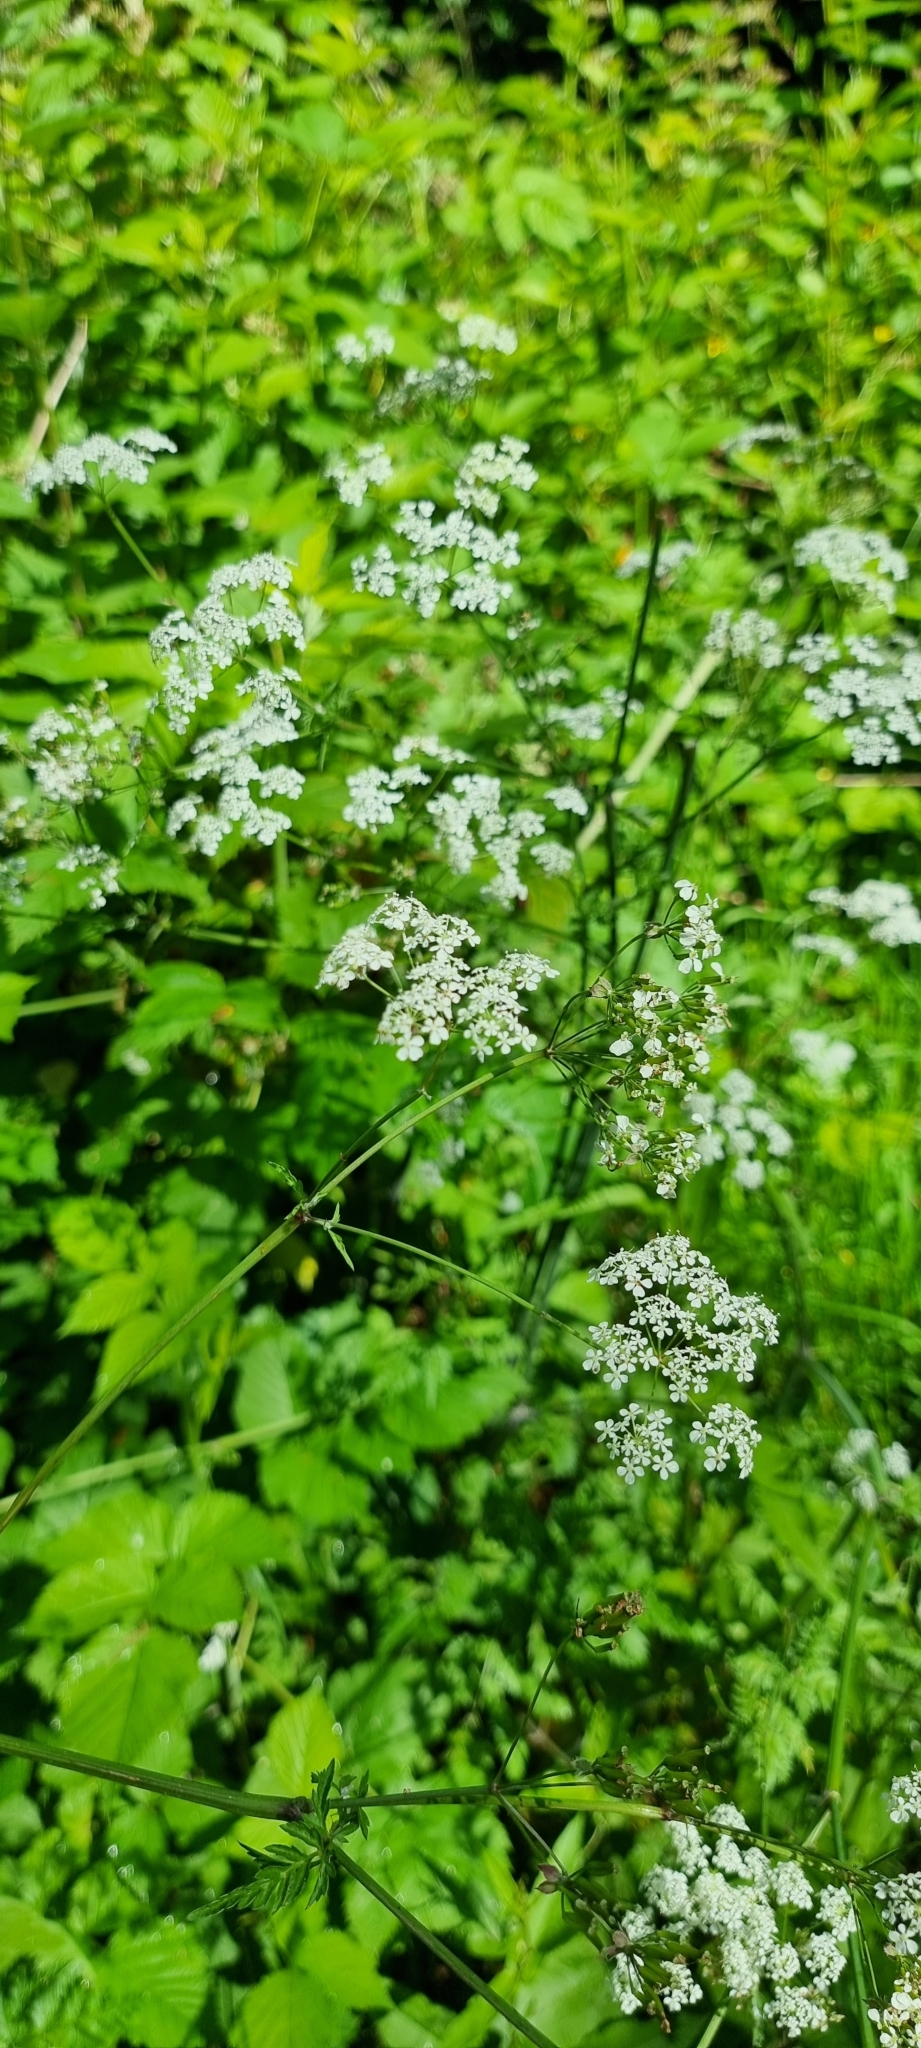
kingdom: Plantae
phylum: Tracheophyta
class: Magnoliopsida
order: Apiales
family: Apiaceae
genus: Anthriscus
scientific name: Anthriscus sylvestris
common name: Cow parsley
